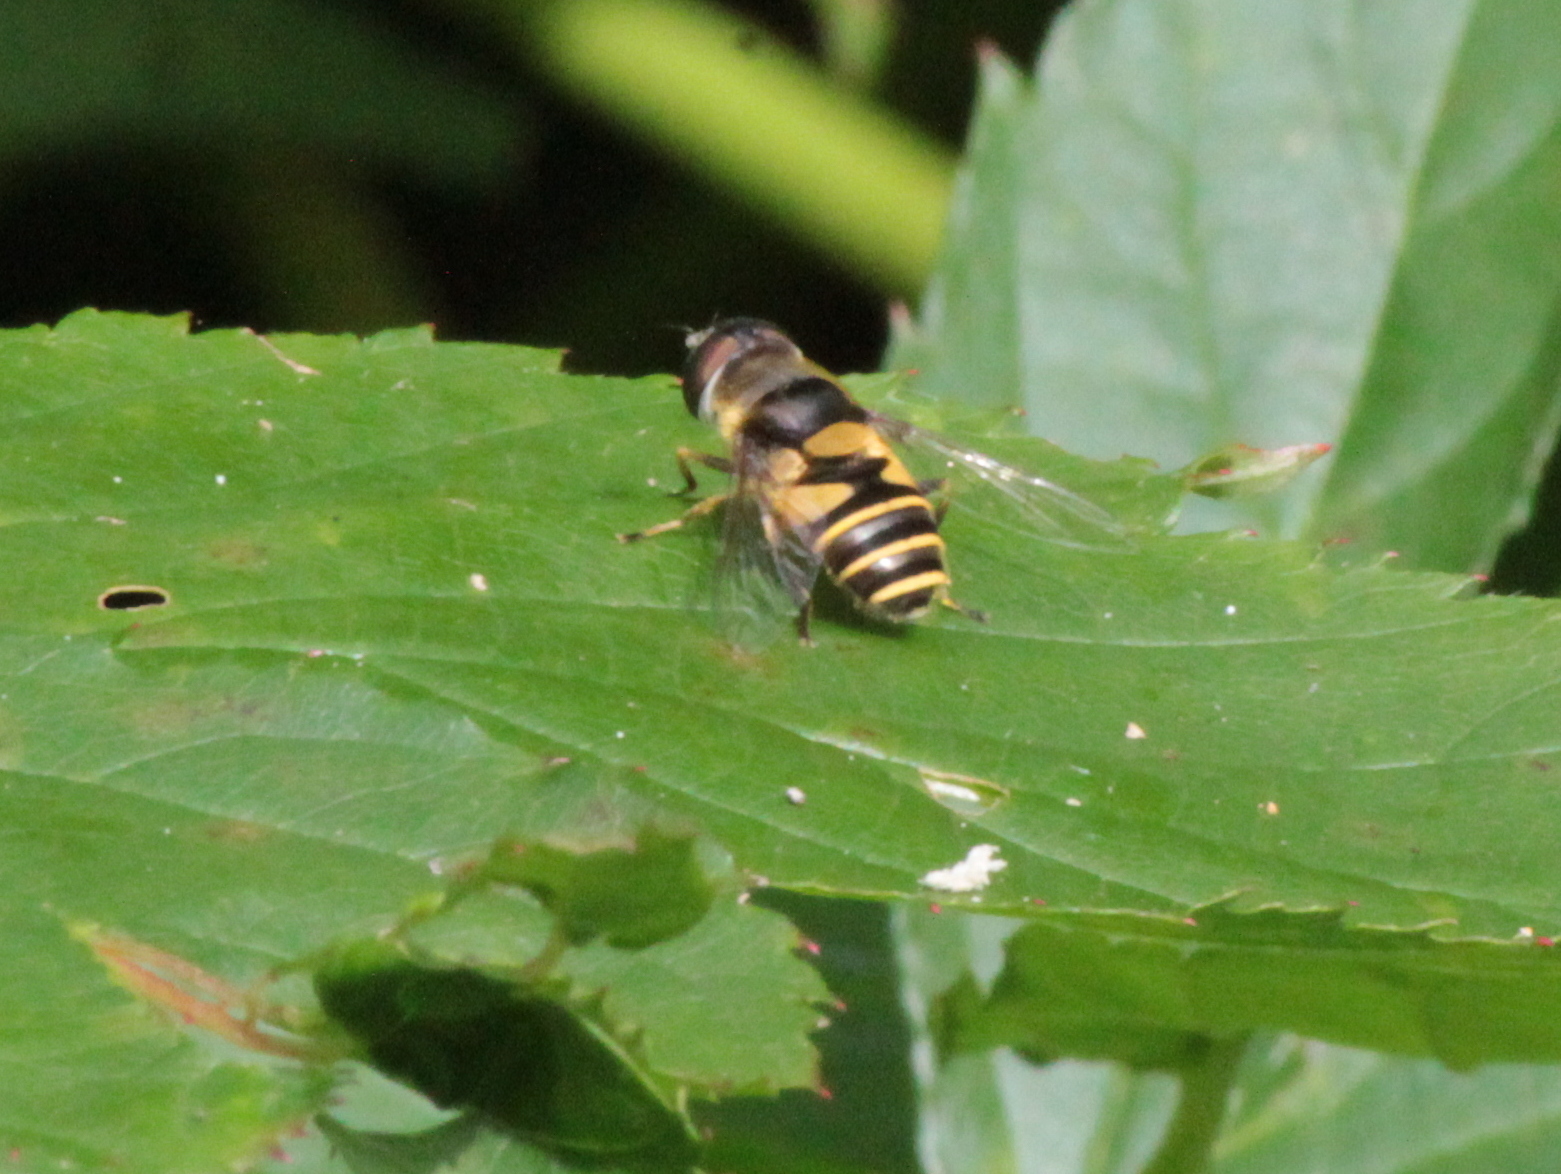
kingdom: Animalia
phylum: Arthropoda
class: Insecta
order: Diptera
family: Syrphidae
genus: Eristalis
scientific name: Eristalis transversa
